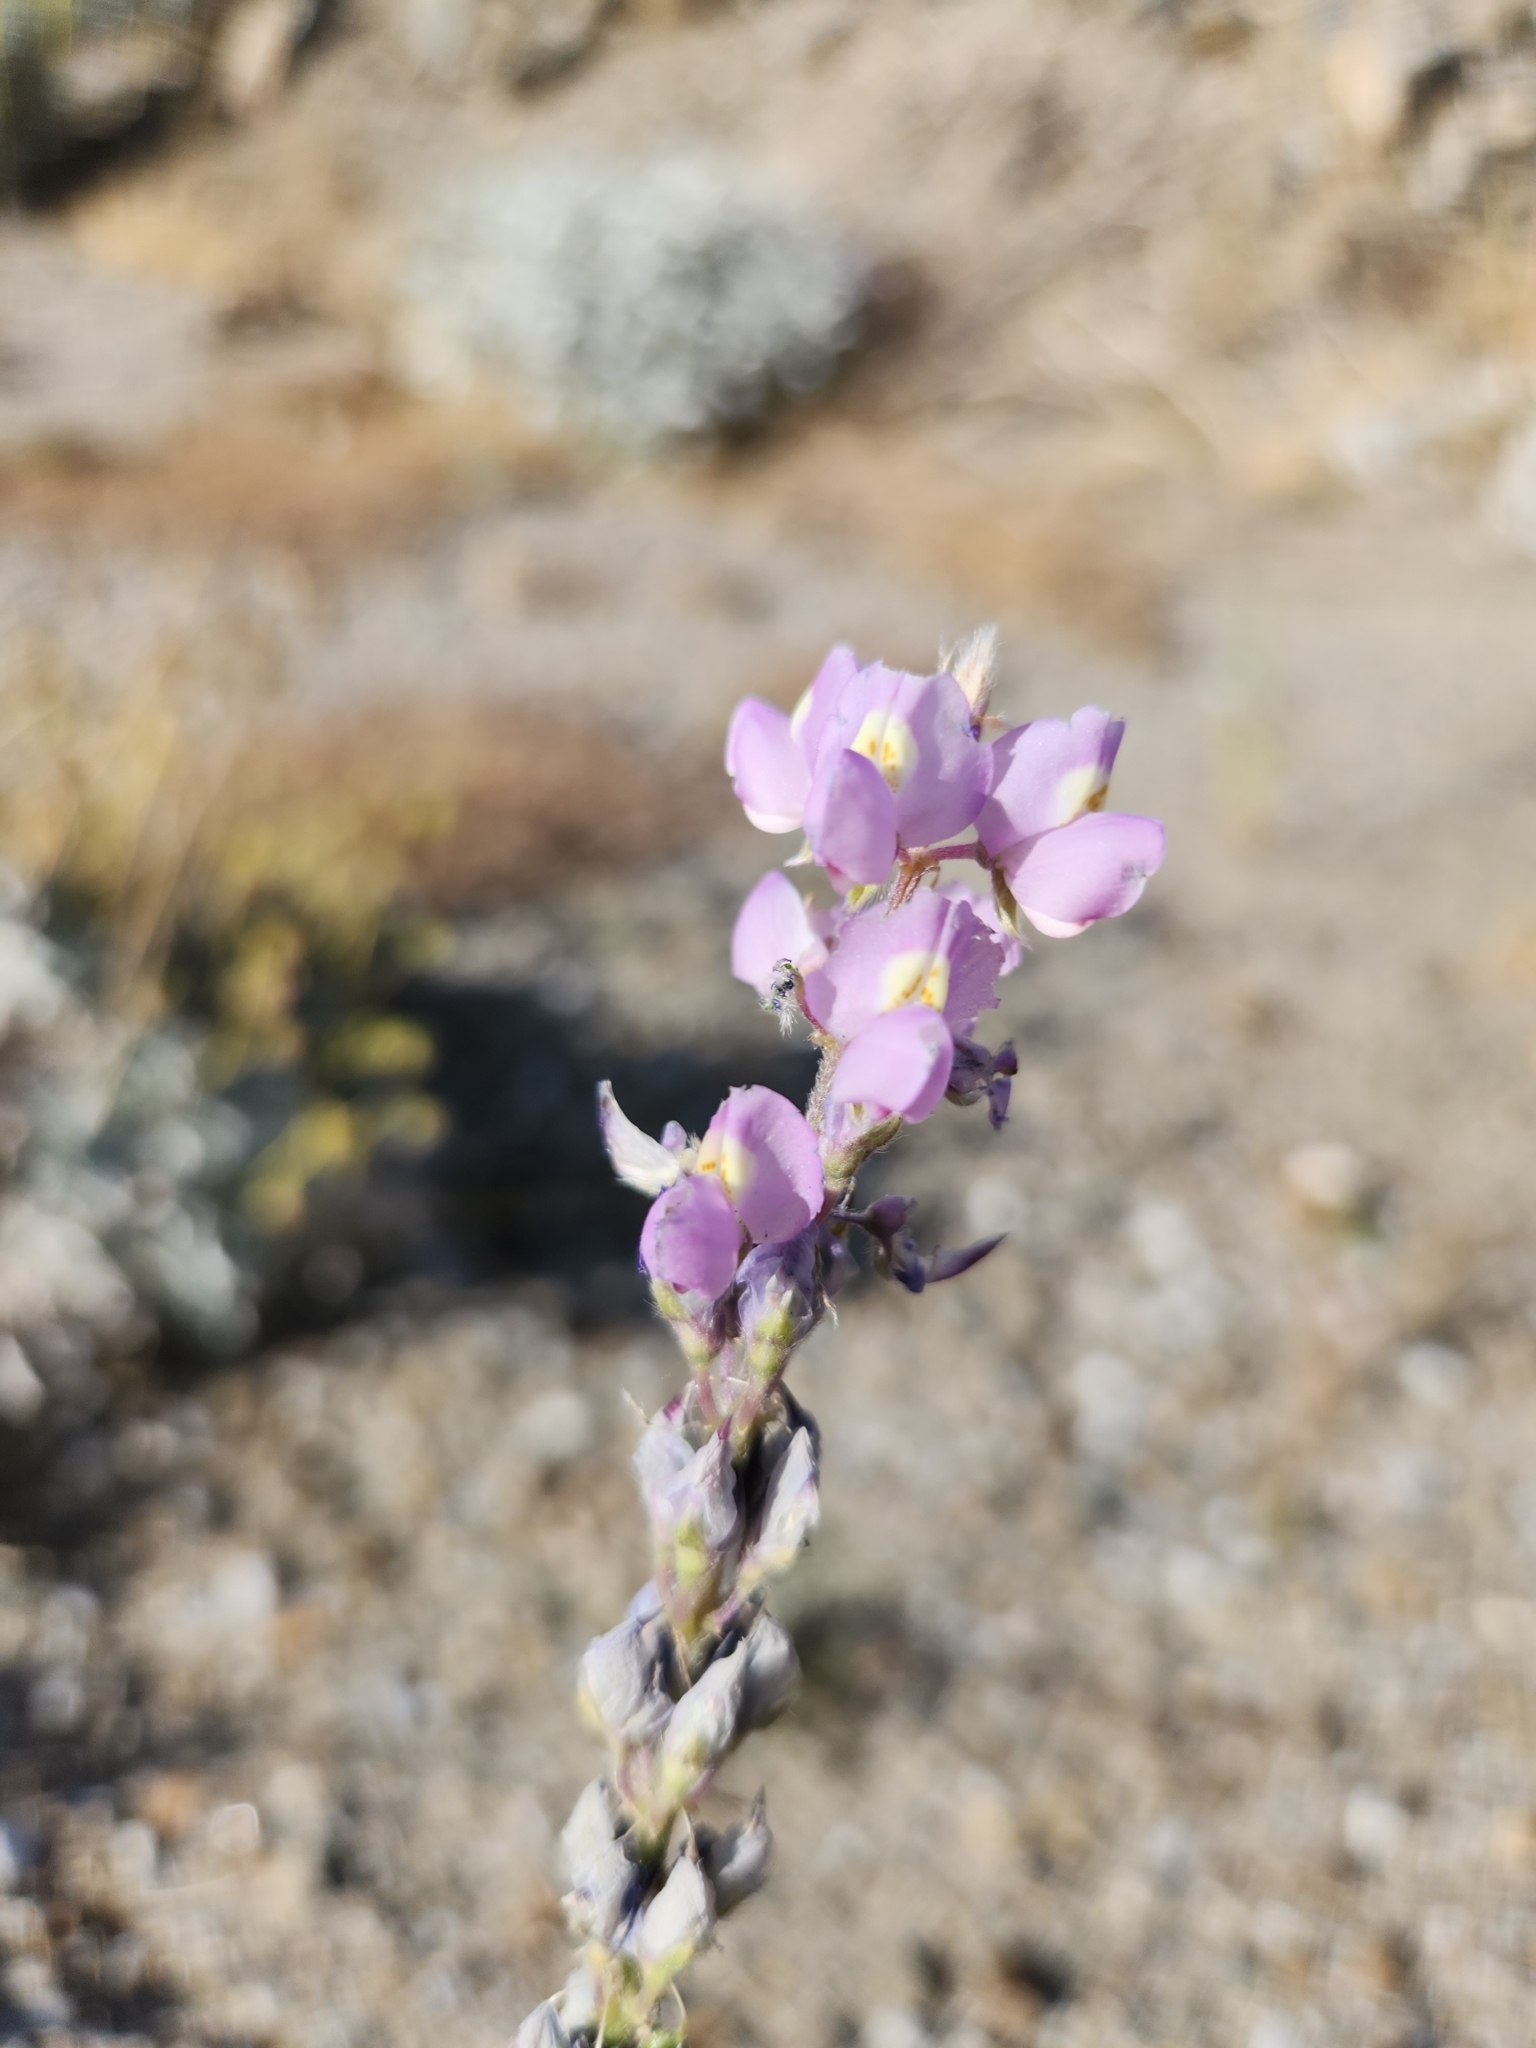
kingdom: Plantae
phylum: Tracheophyta
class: Magnoliopsida
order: Fabales
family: Fabaceae
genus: Lupinus
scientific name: Lupinus arizonicus
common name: Arizona lupine
